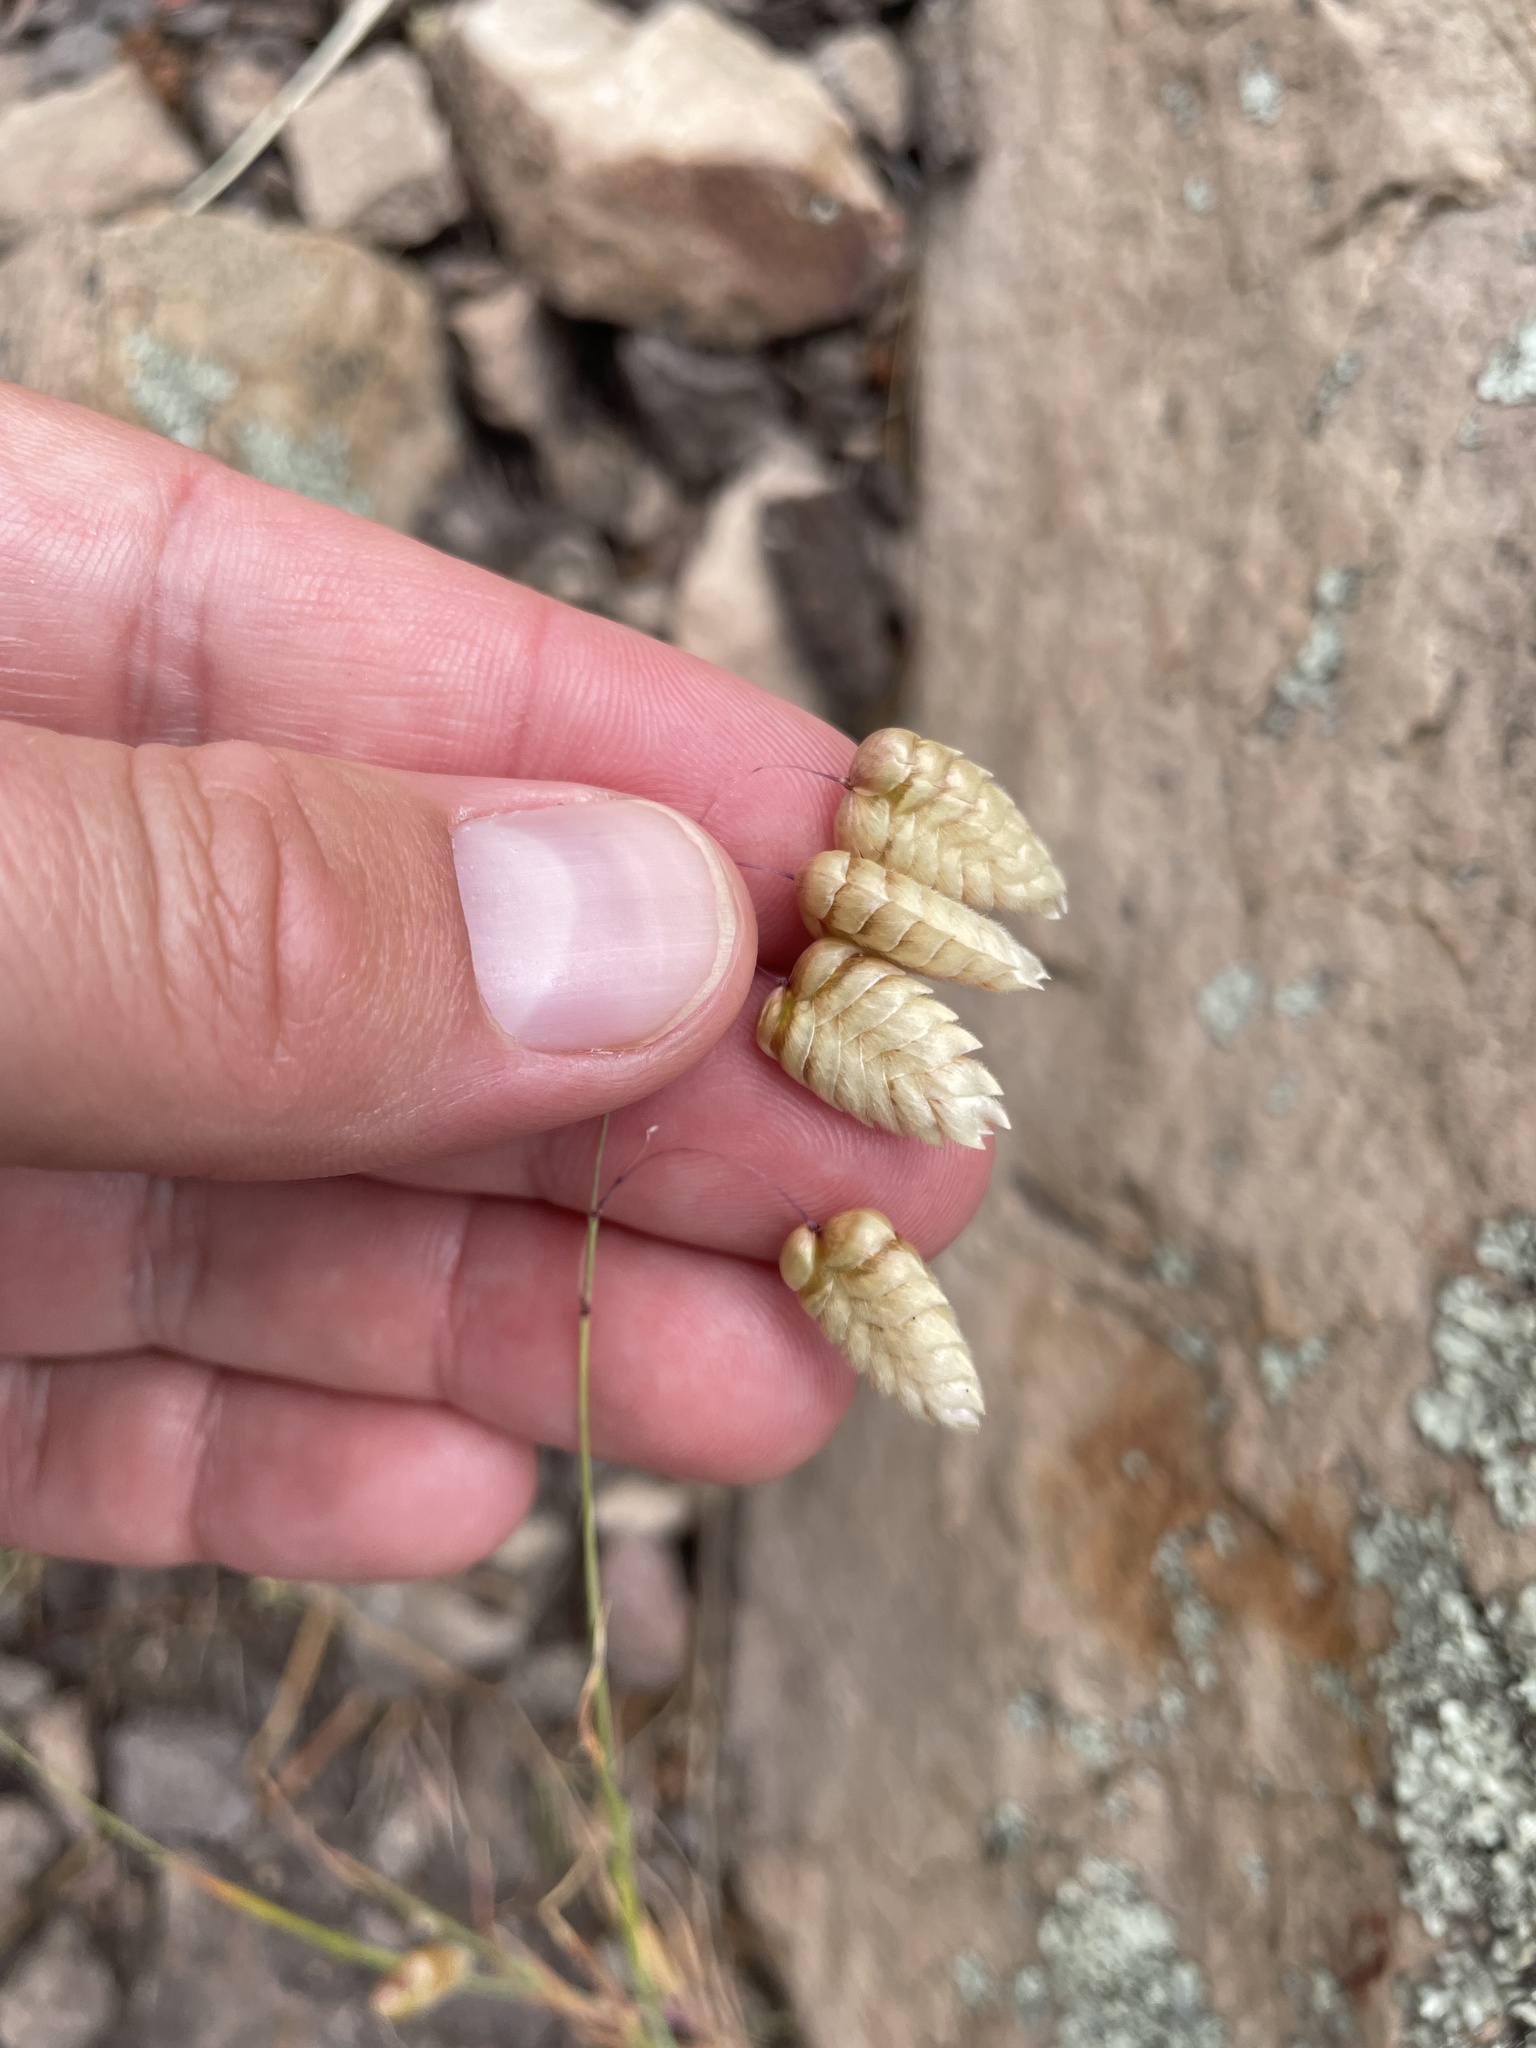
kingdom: Plantae
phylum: Tracheophyta
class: Liliopsida
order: Poales
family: Poaceae
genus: Briza
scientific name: Briza maxima
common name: Big quakinggrass
